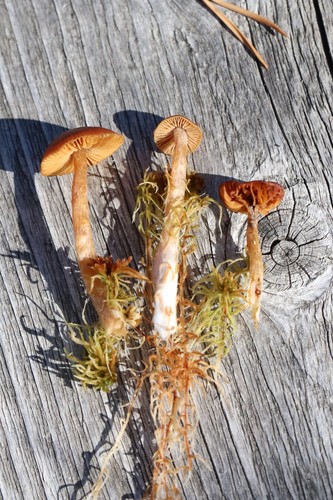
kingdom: Fungi
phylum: Basidiomycota
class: Agaricomycetes
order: Agaricales
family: Cortinariaceae
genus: Cortinarius
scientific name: Cortinarius subfloccopus
